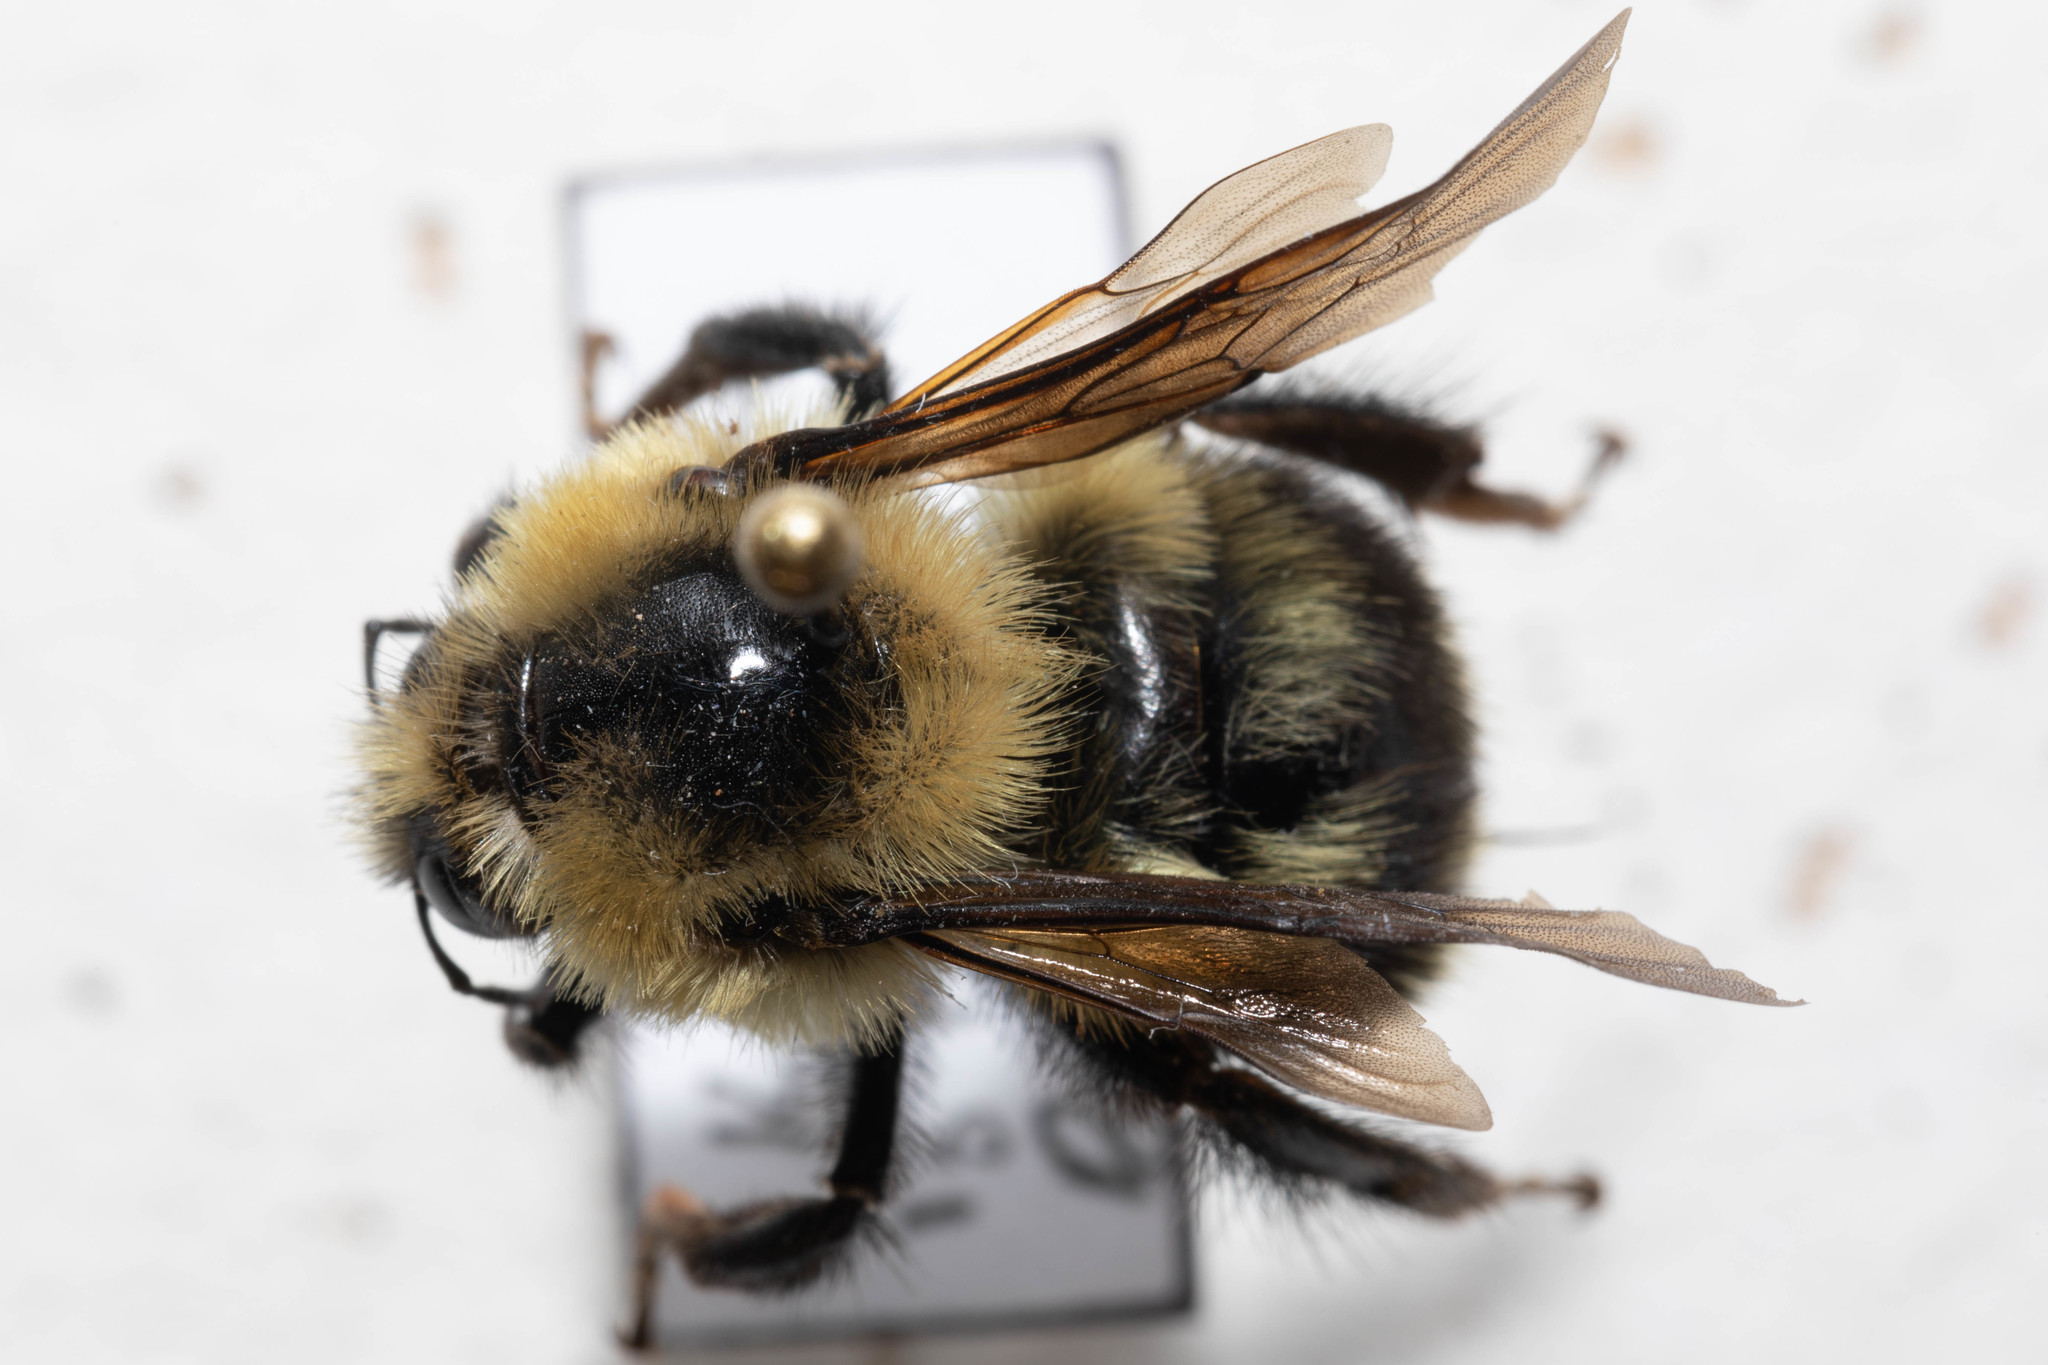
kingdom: Animalia
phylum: Arthropoda
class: Insecta
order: Hymenoptera
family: Apidae
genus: Bombus
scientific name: Bombus rufocinctus
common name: Red-belted bumble bee
